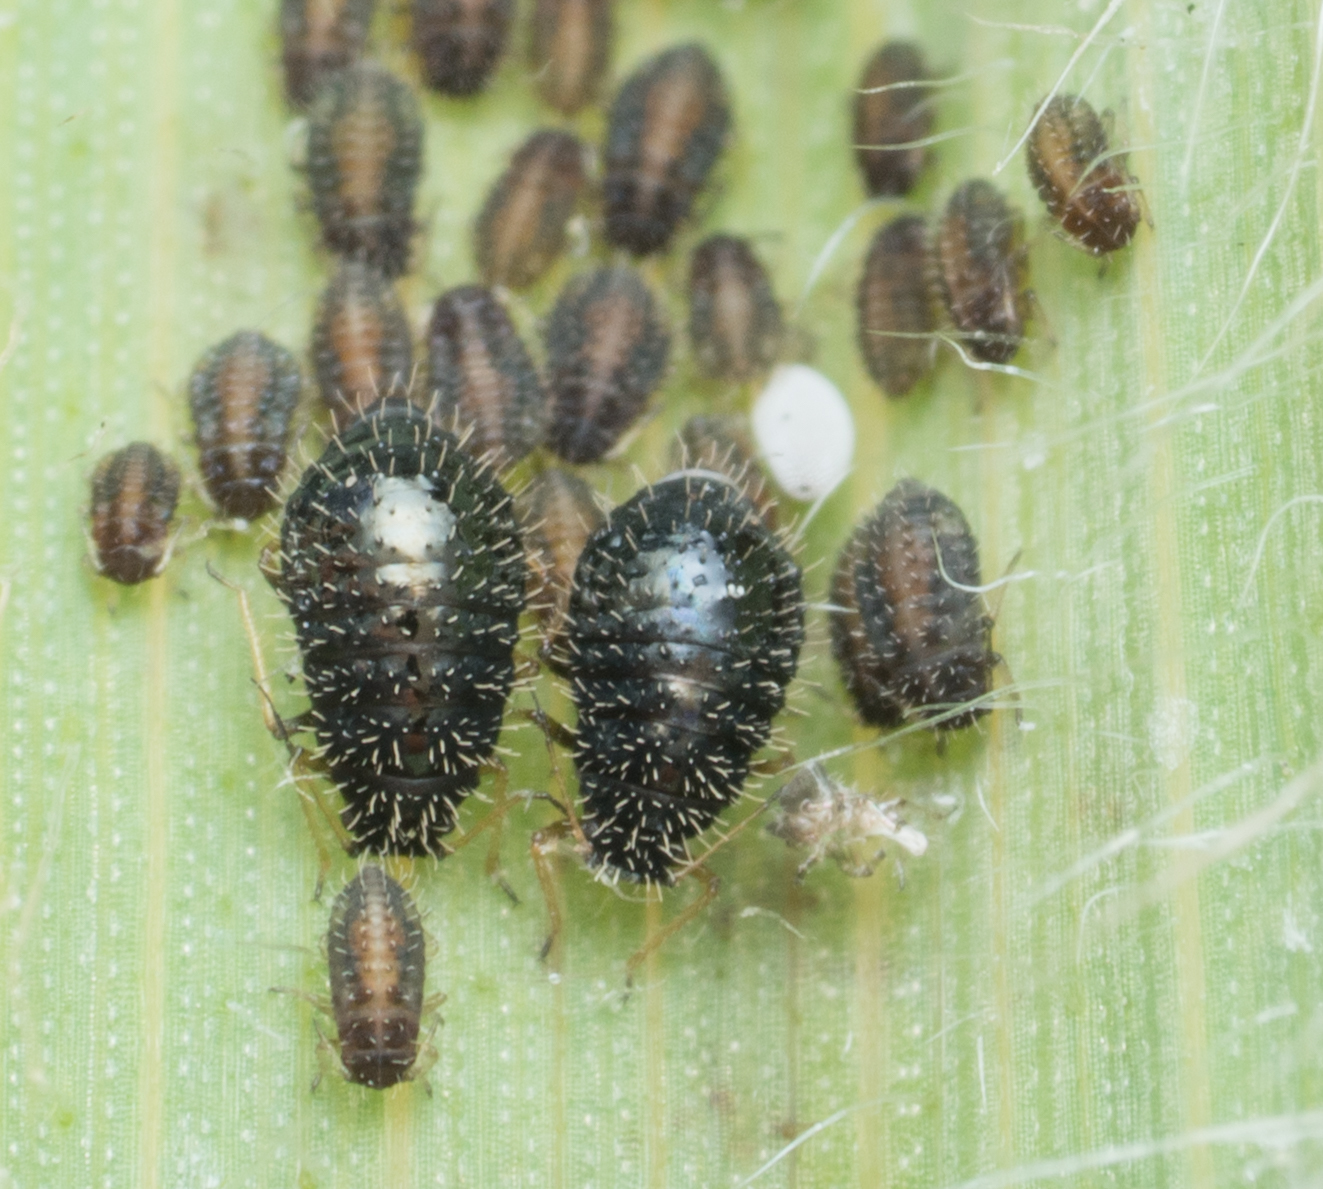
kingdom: Animalia
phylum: Arthropoda
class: Insecta
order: Hemiptera
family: Aphididae
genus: Sipha
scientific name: Sipha maydis
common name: Aphid
